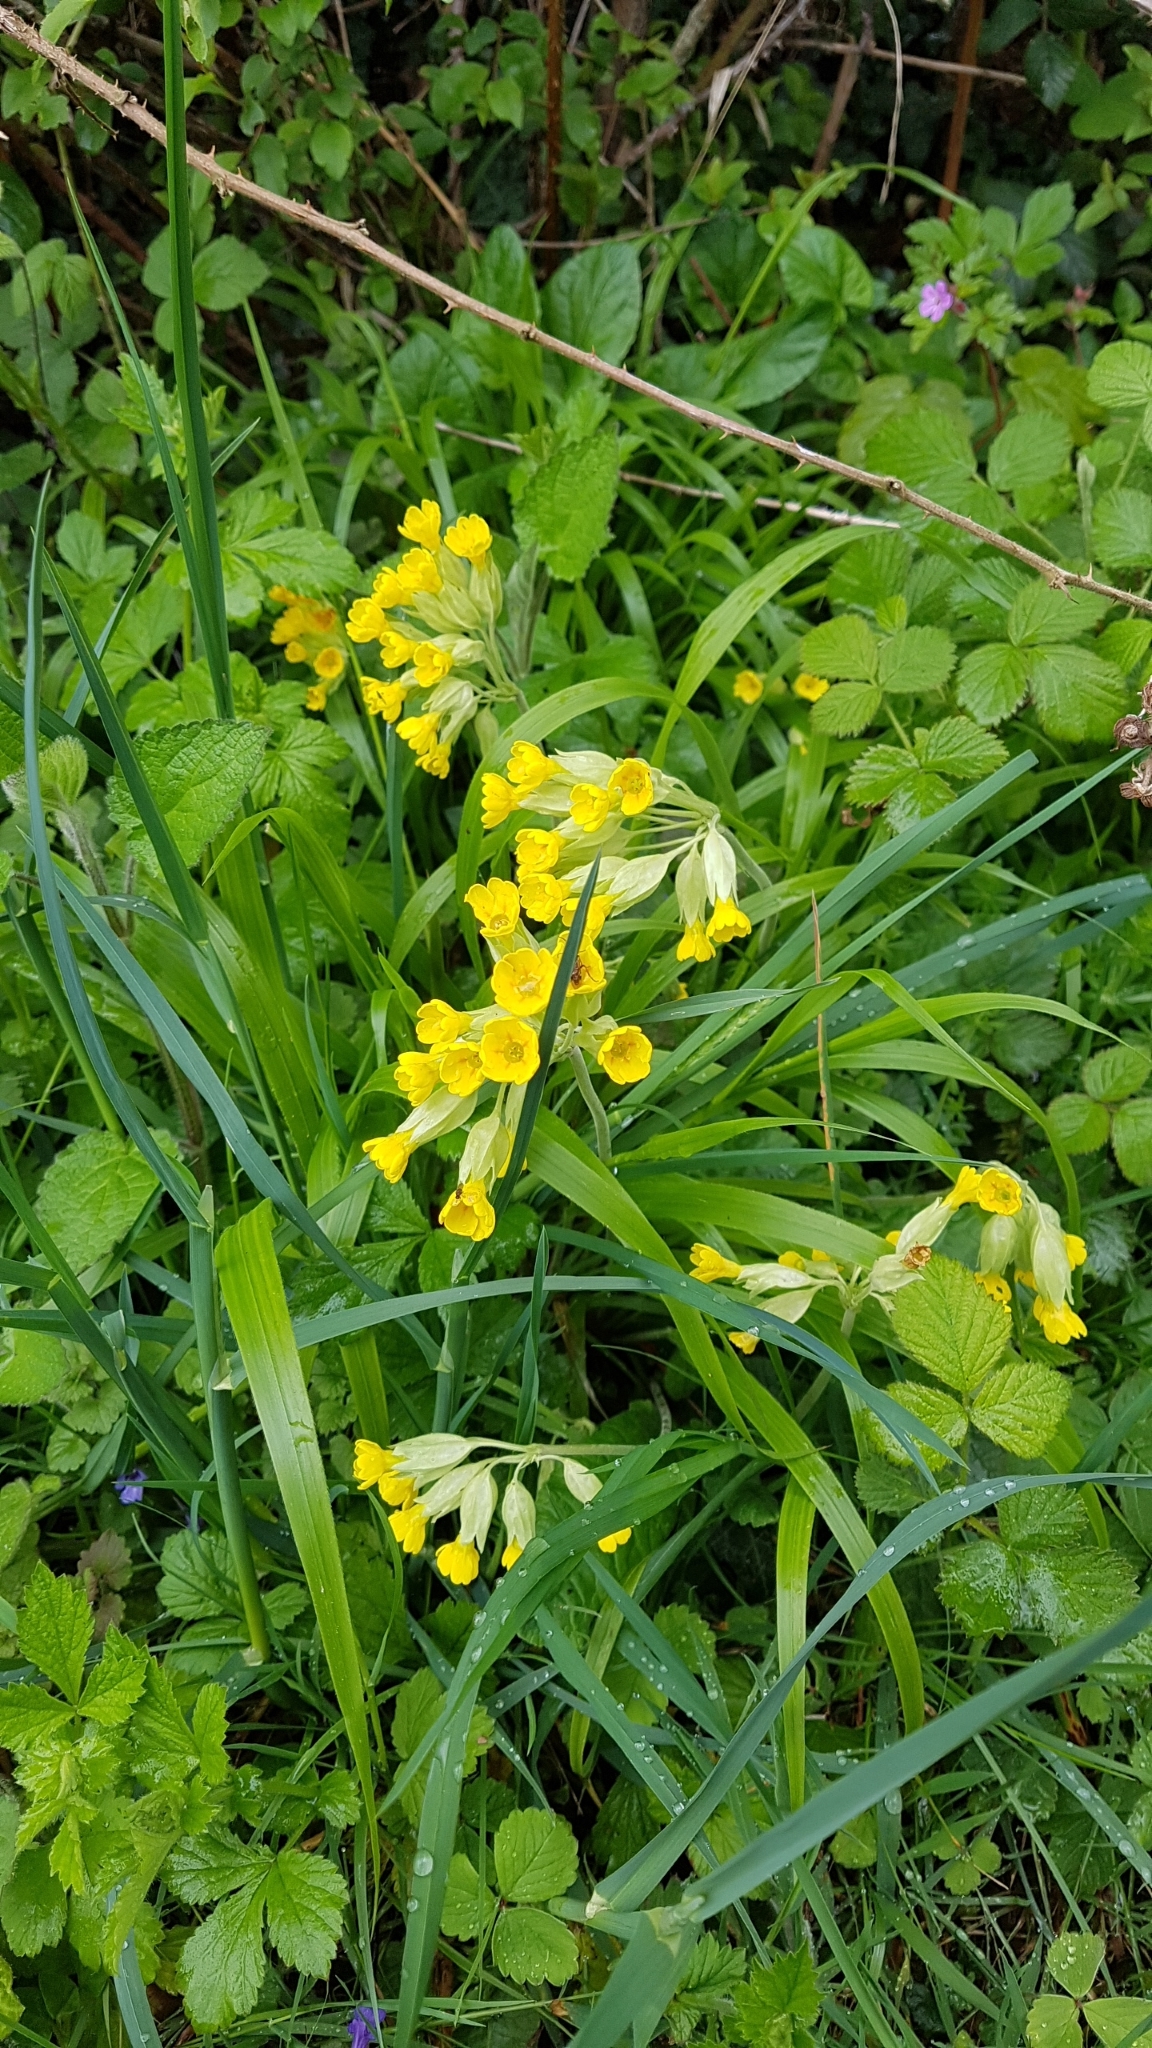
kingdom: Plantae
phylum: Tracheophyta
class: Magnoliopsida
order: Ericales
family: Primulaceae
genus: Primula
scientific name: Primula veris
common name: Cowslip
